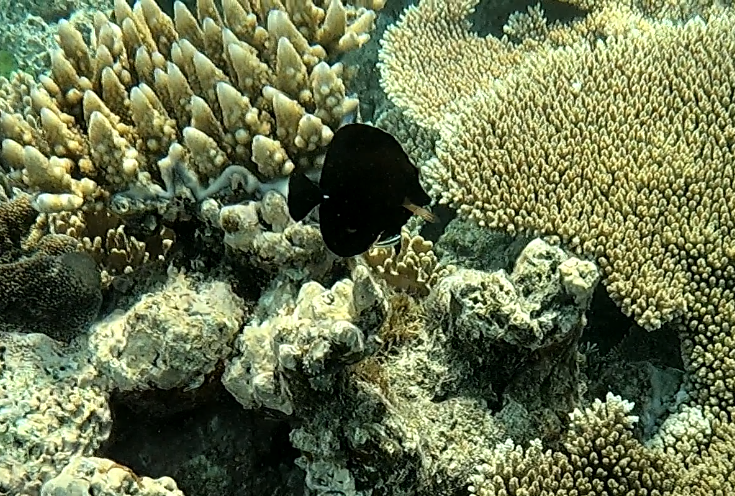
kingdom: Animalia
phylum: Chordata
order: Perciformes
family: Acanthuridae
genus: Zebrasoma
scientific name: Zebrasoma scopas
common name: Twotone tang
